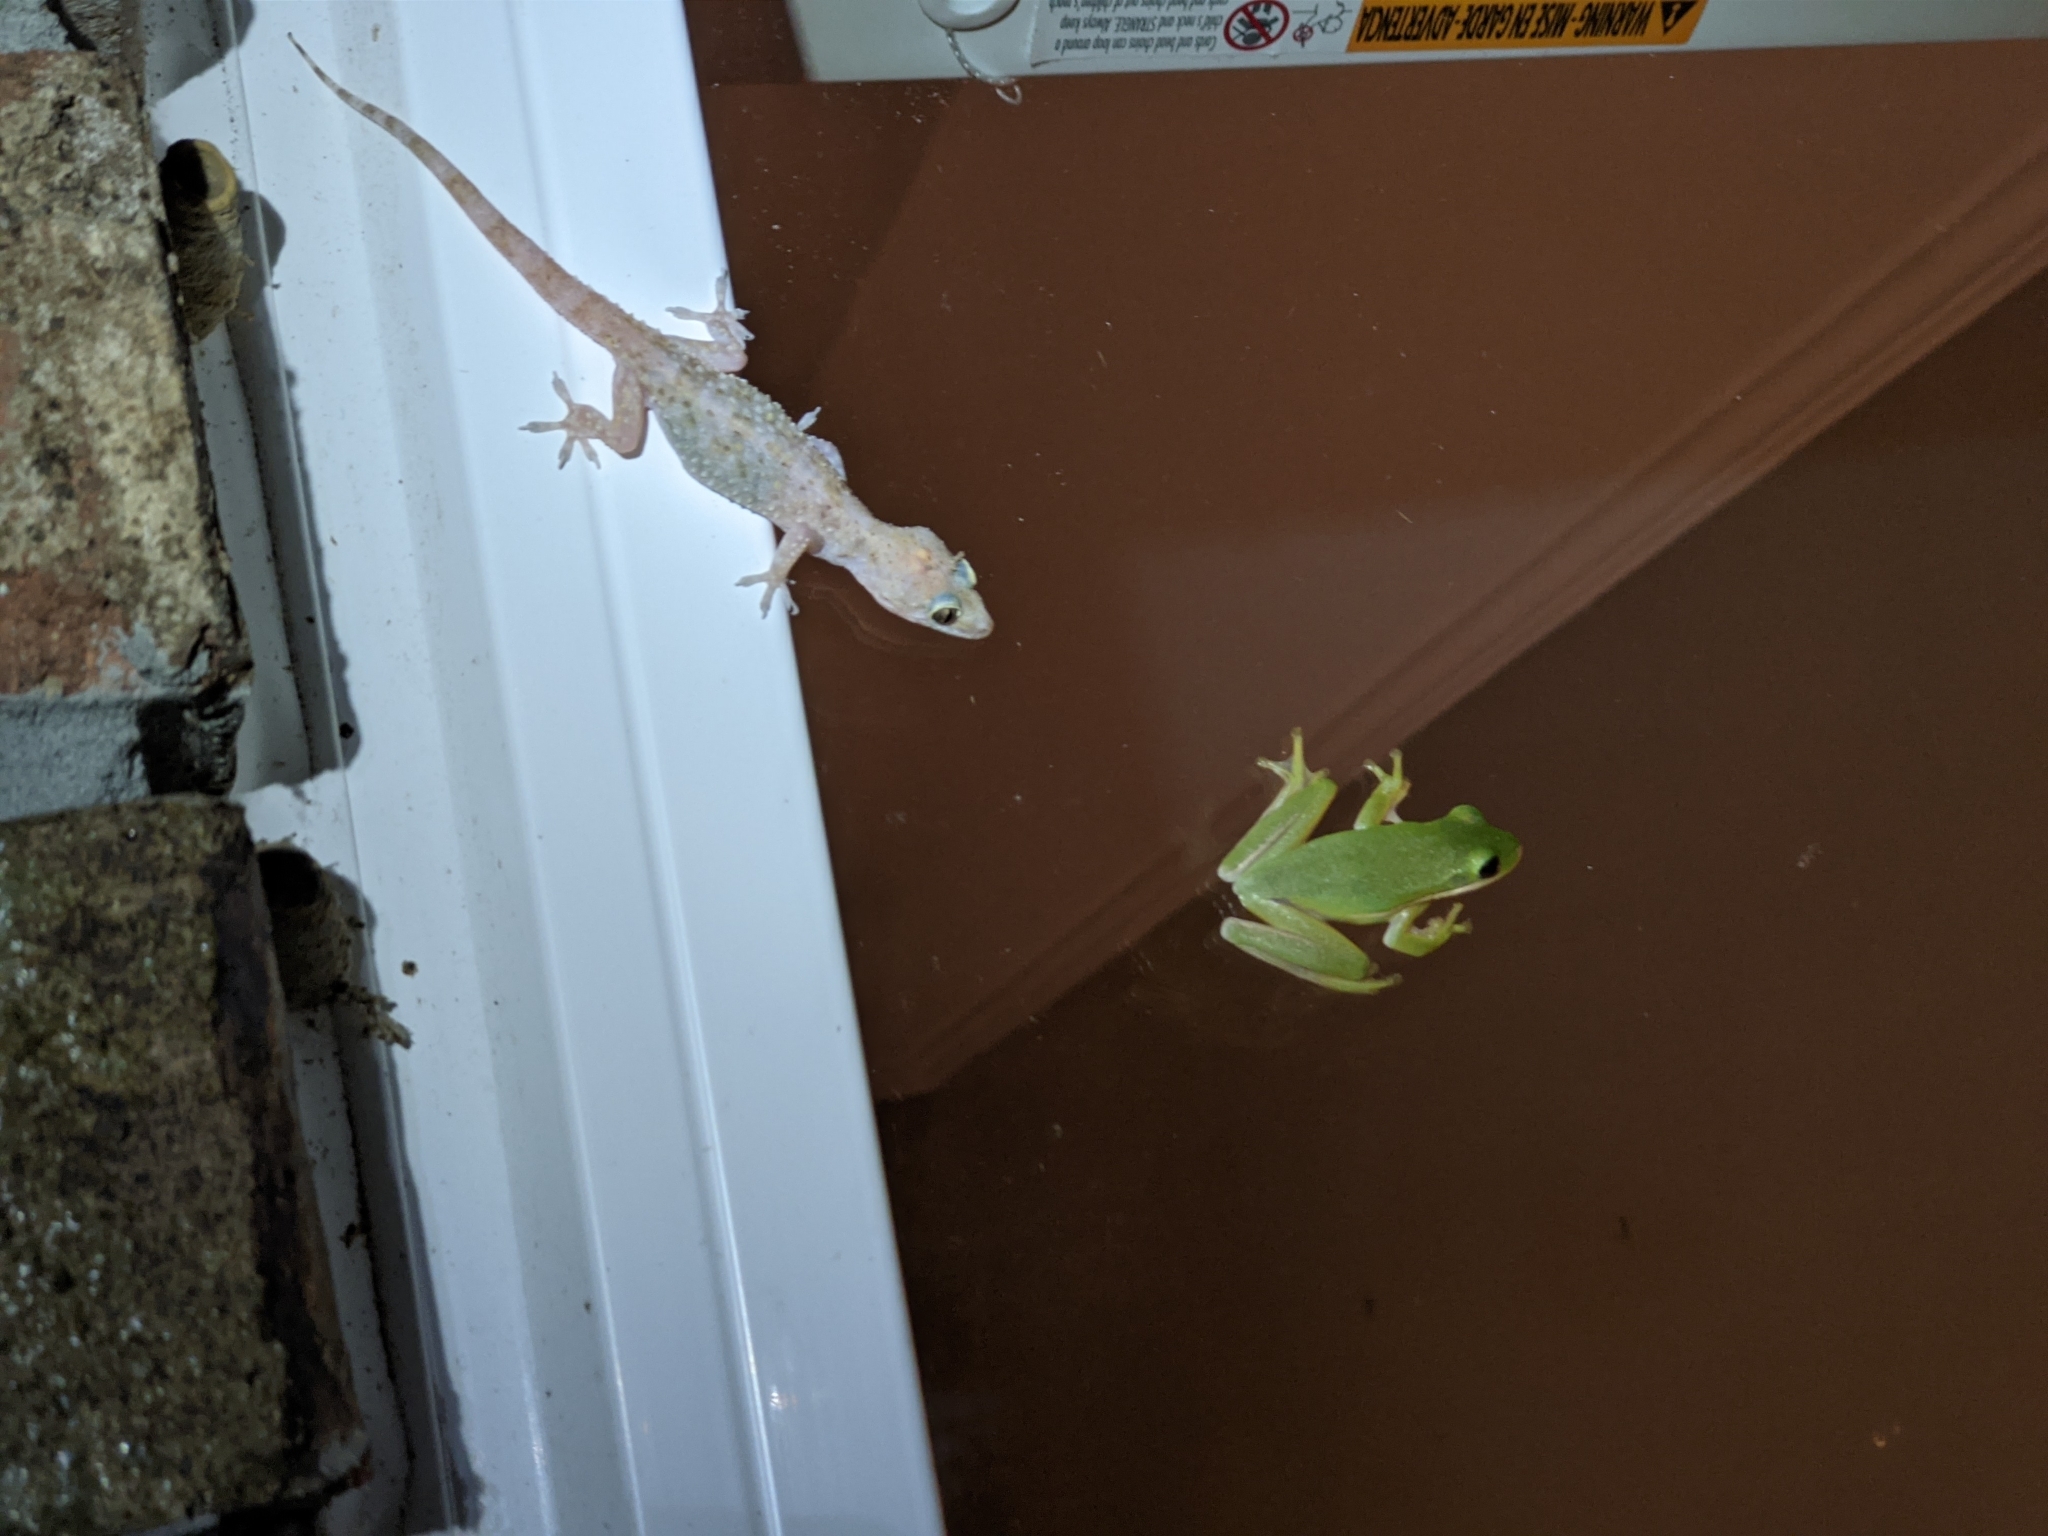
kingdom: Animalia
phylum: Chordata
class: Amphibia
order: Anura
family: Hylidae
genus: Dryophytes
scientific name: Dryophytes cinereus
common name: Green treefrog
